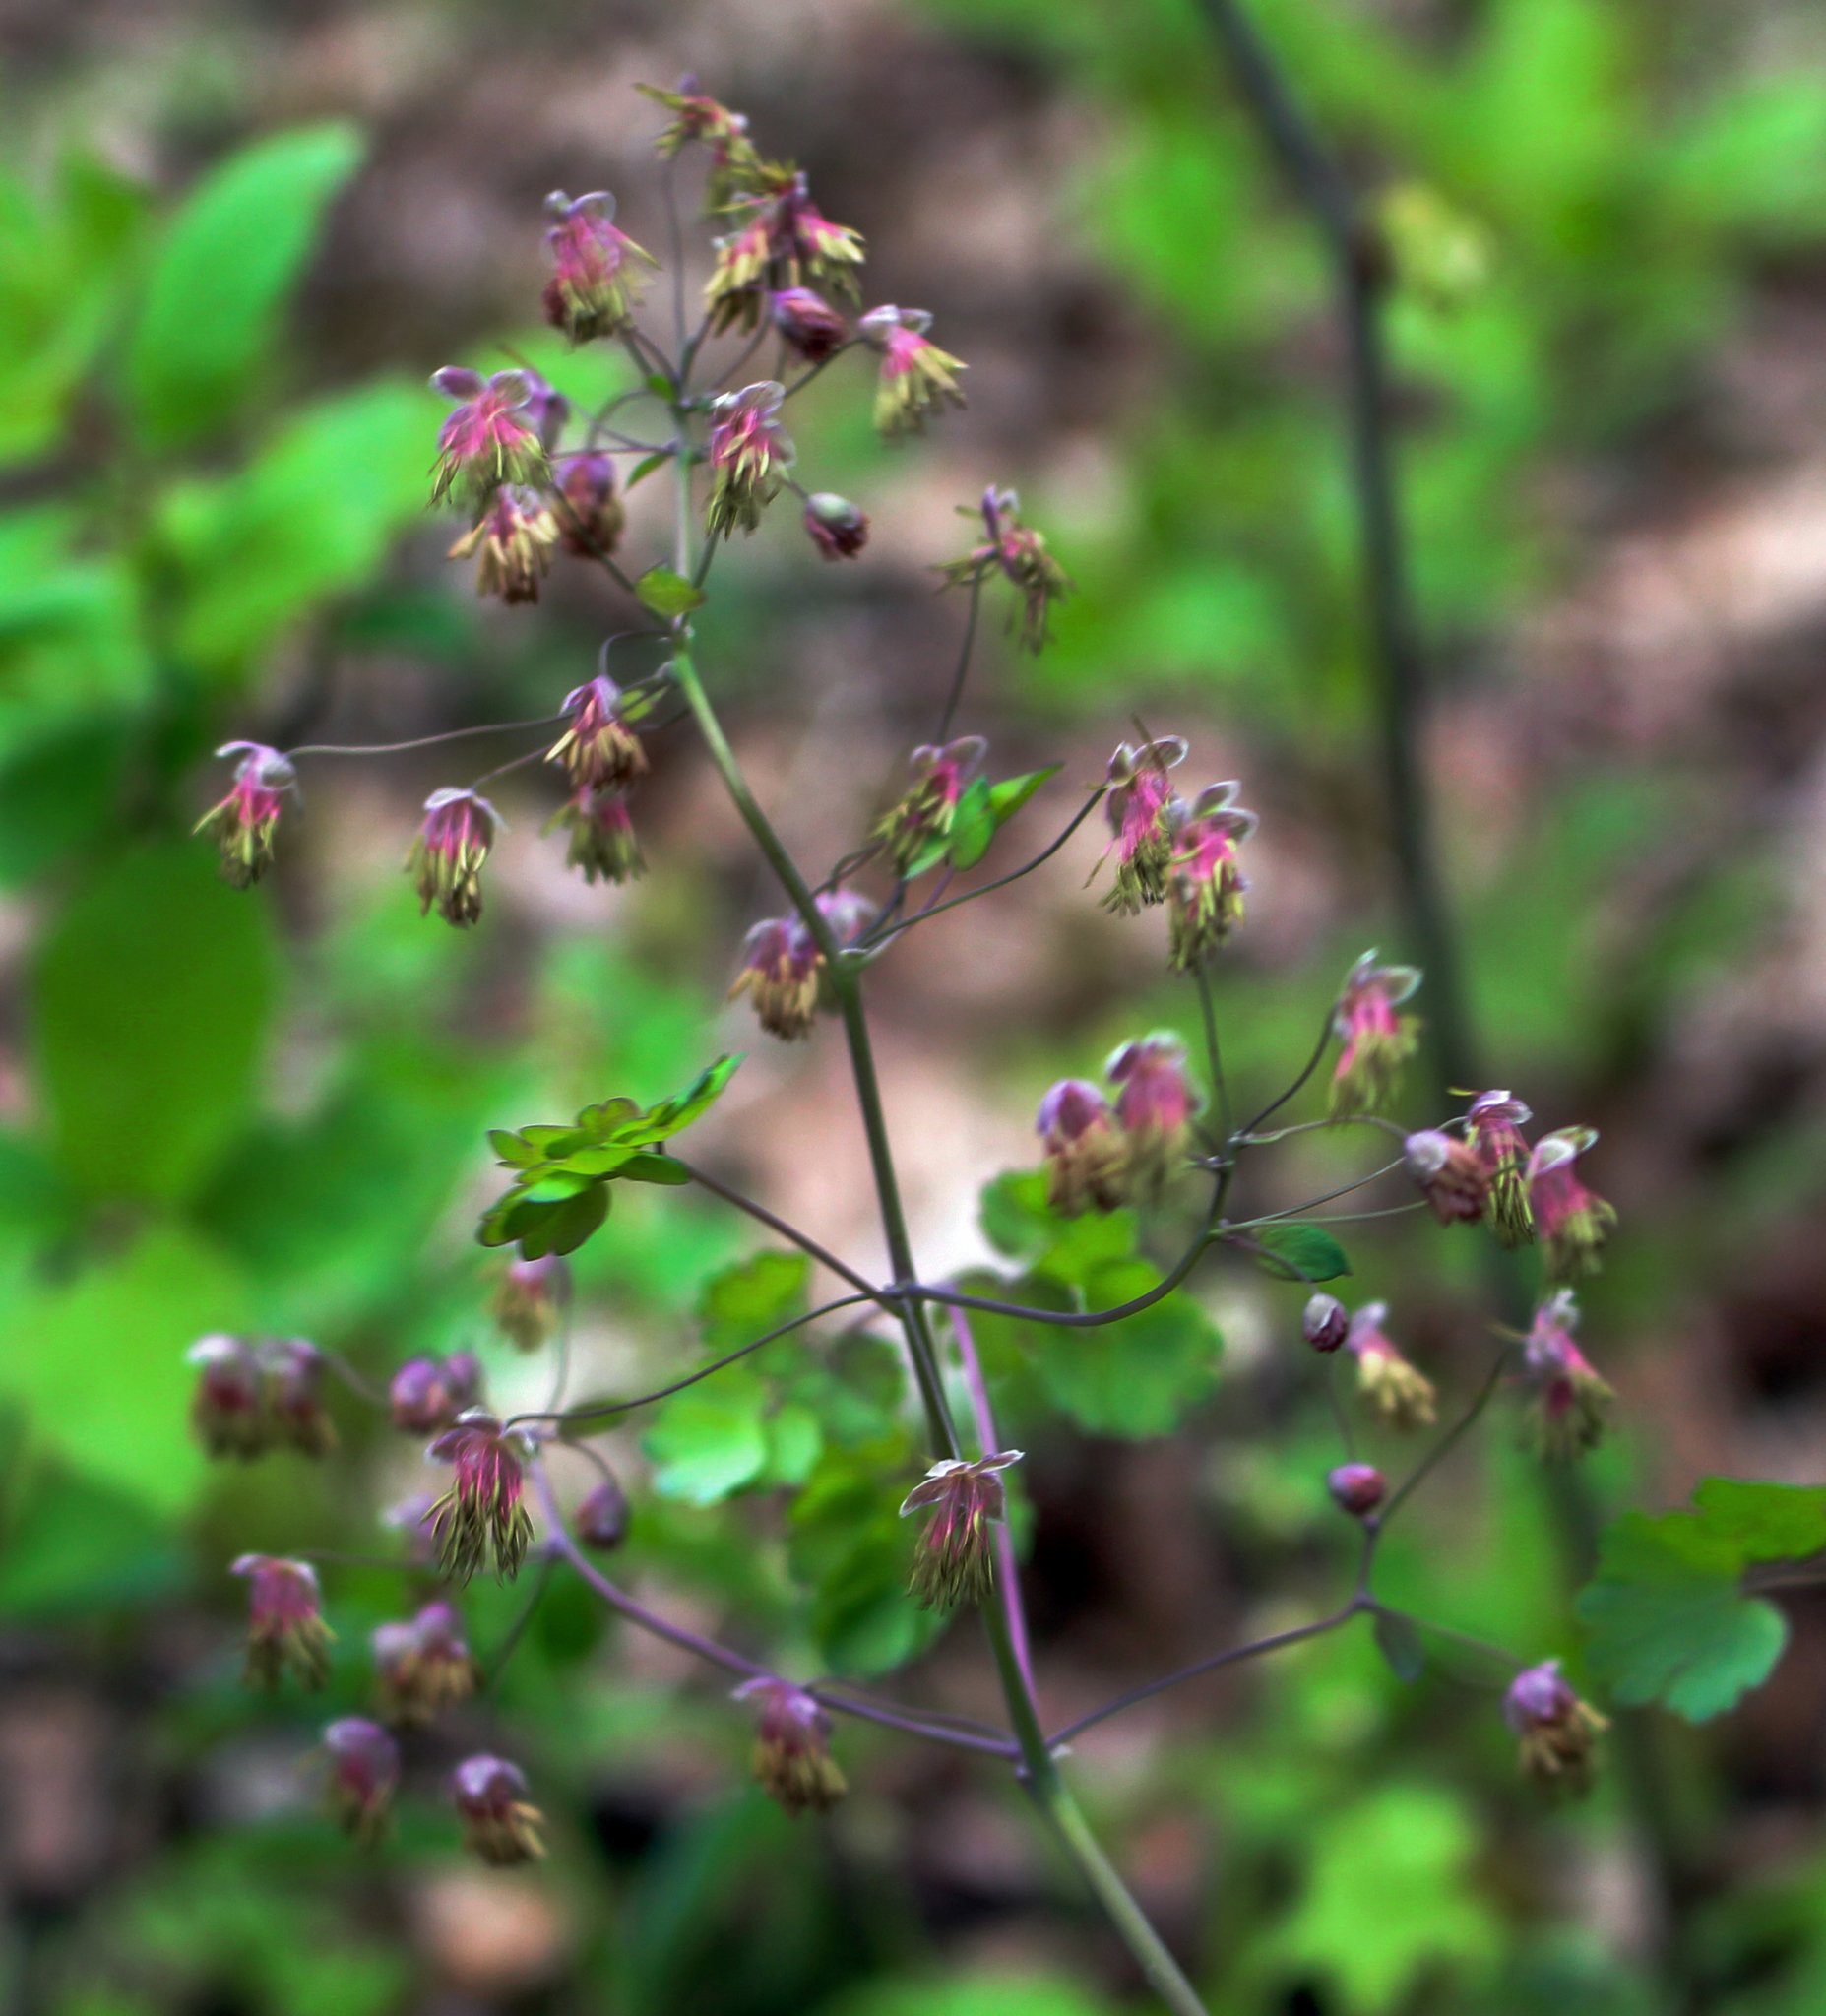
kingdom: Plantae
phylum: Tracheophyta
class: Magnoliopsida
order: Ranunculales
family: Ranunculaceae
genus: Thalictrum
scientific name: Thalictrum dioicum
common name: Early meadow-rue
